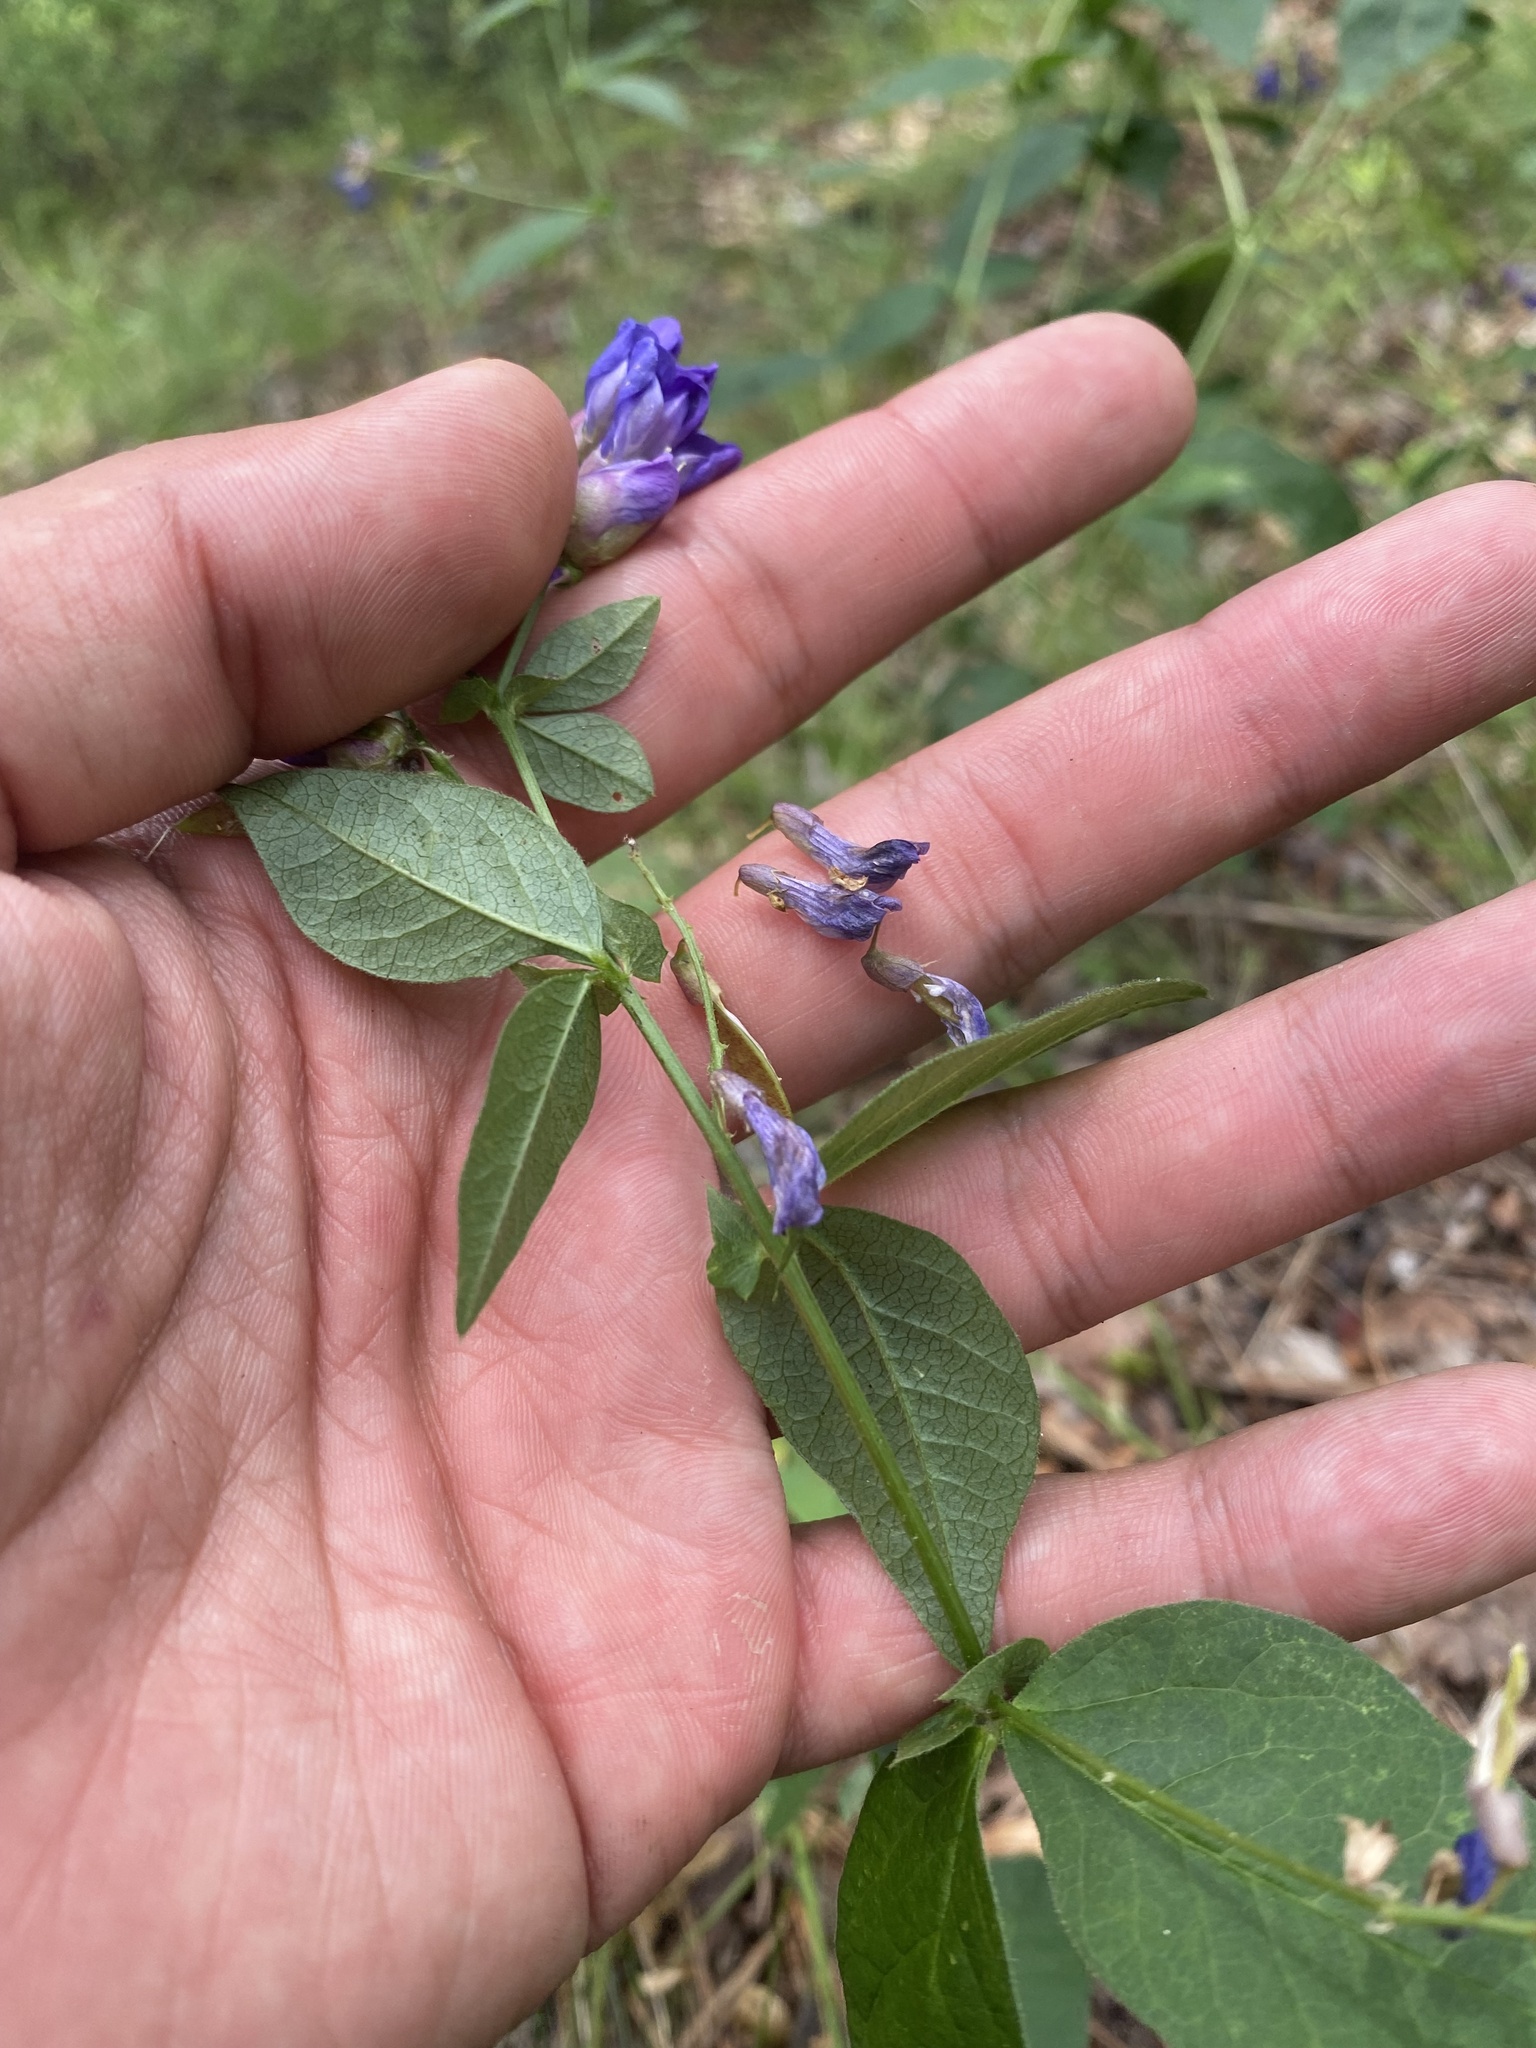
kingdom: Plantae
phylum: Tracheophyta
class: Magnoliopsida
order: Fabales
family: Fabaceae
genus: Vicia
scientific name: Vicia unijuga
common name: Two-leaf vetch
